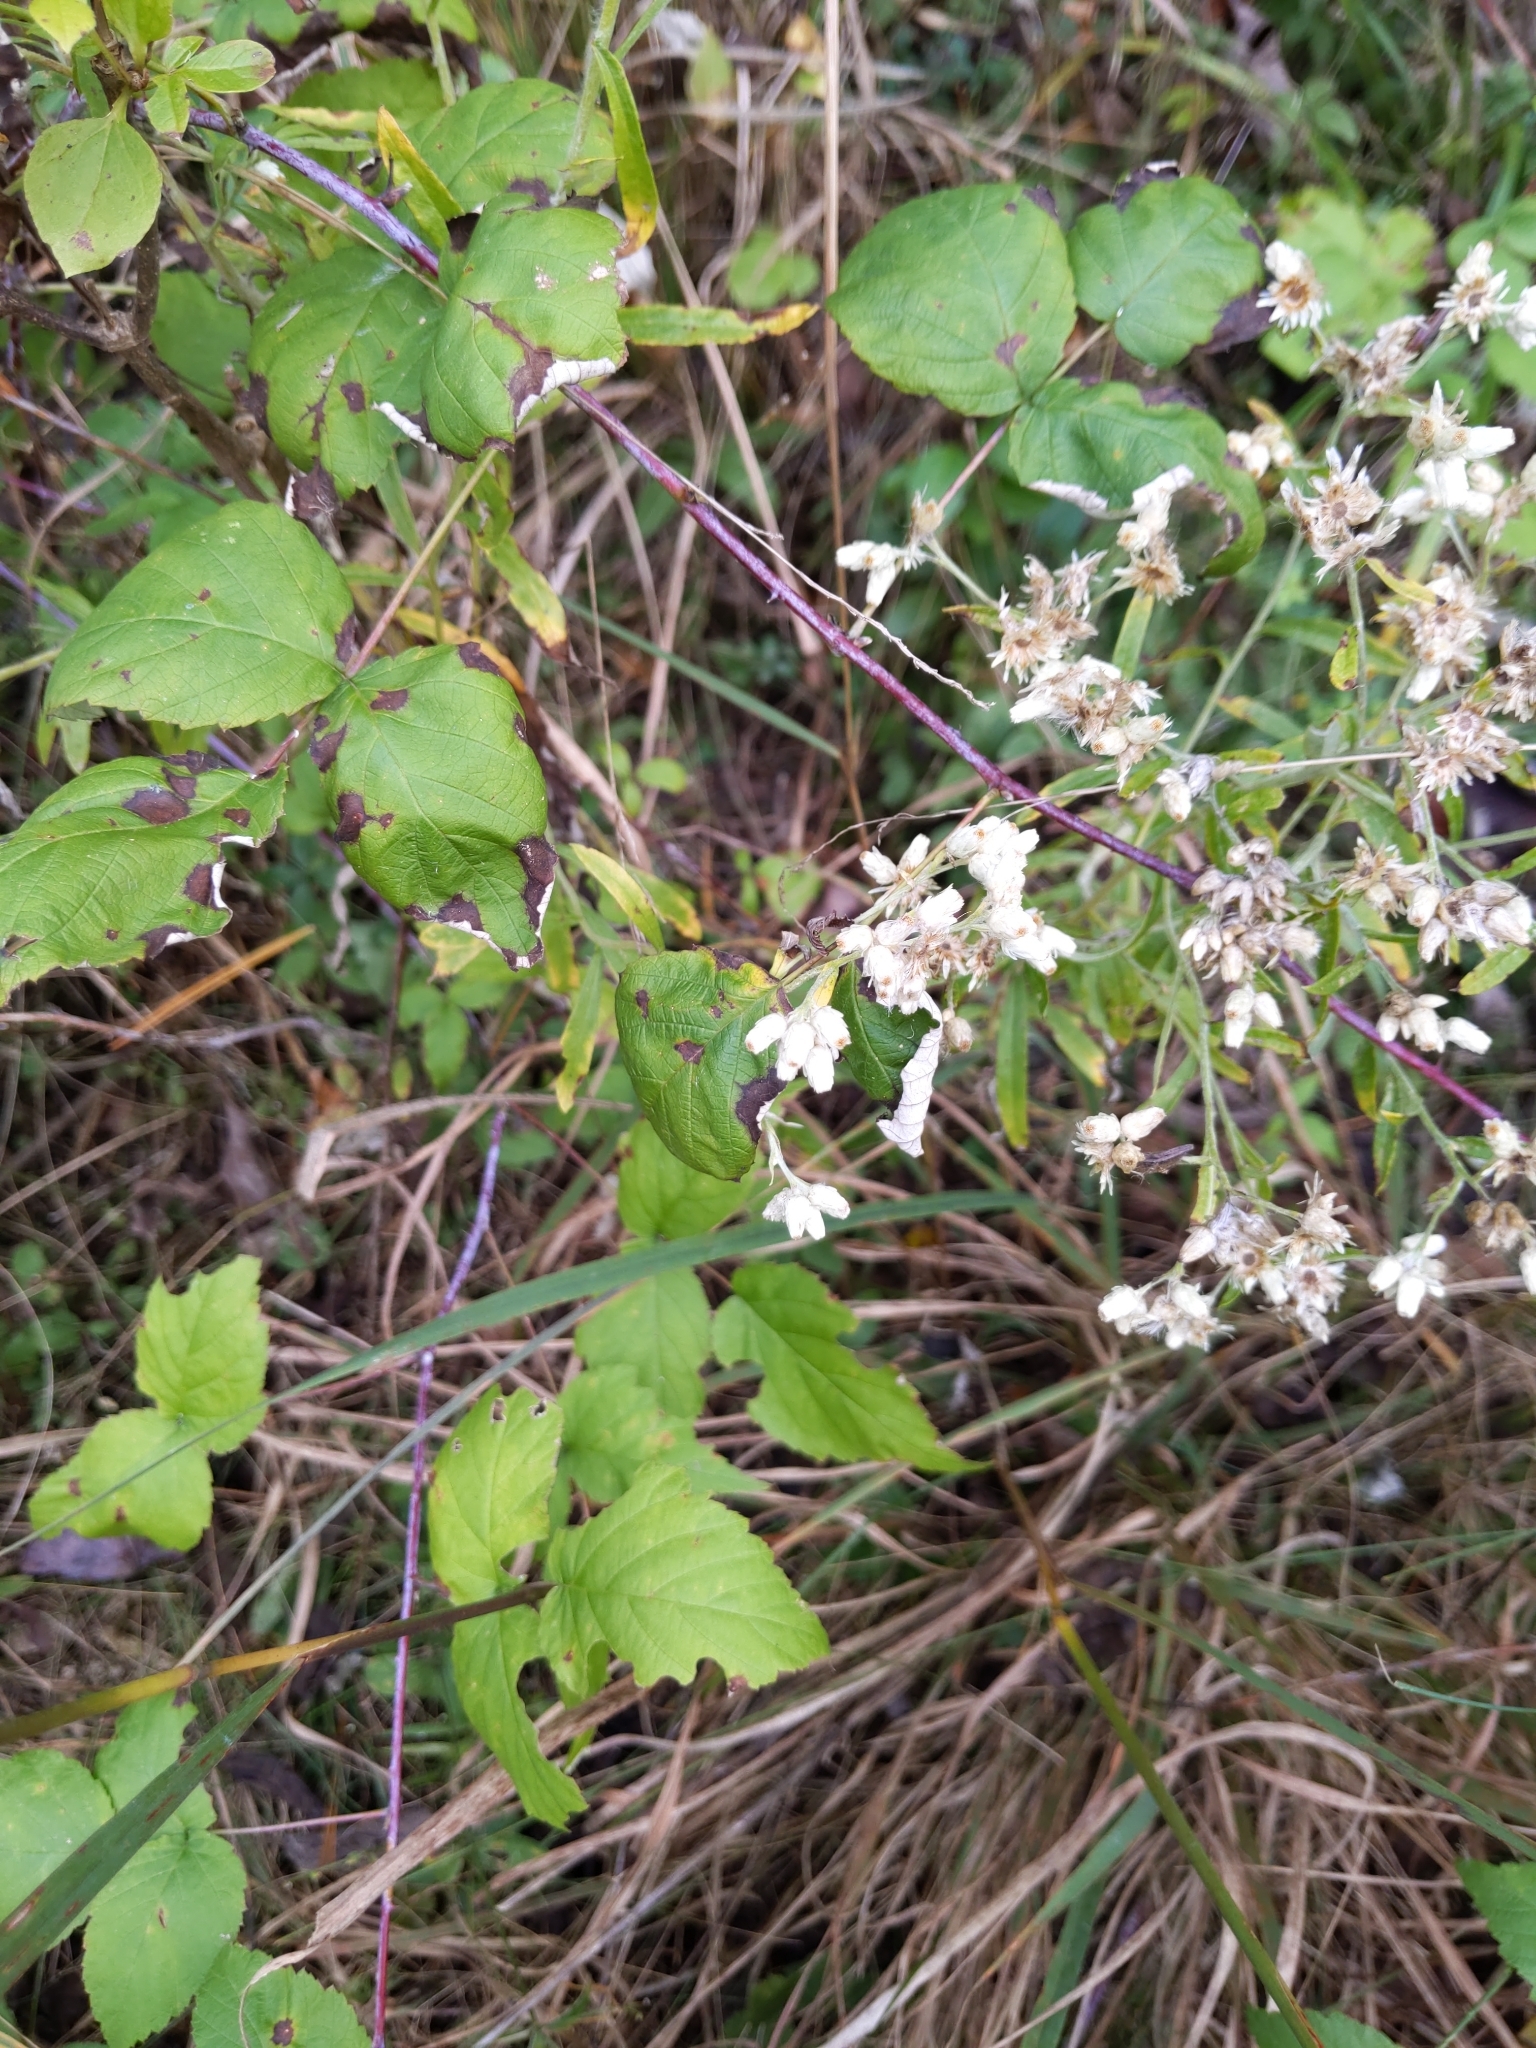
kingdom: Plantae
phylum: Tracheophyta
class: Magnoliopsida
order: Asterales
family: Asteraceae
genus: Pseudognaphalium
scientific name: Pseudognaphalium obtusifolium
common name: Eastern rabbit-tobacco
